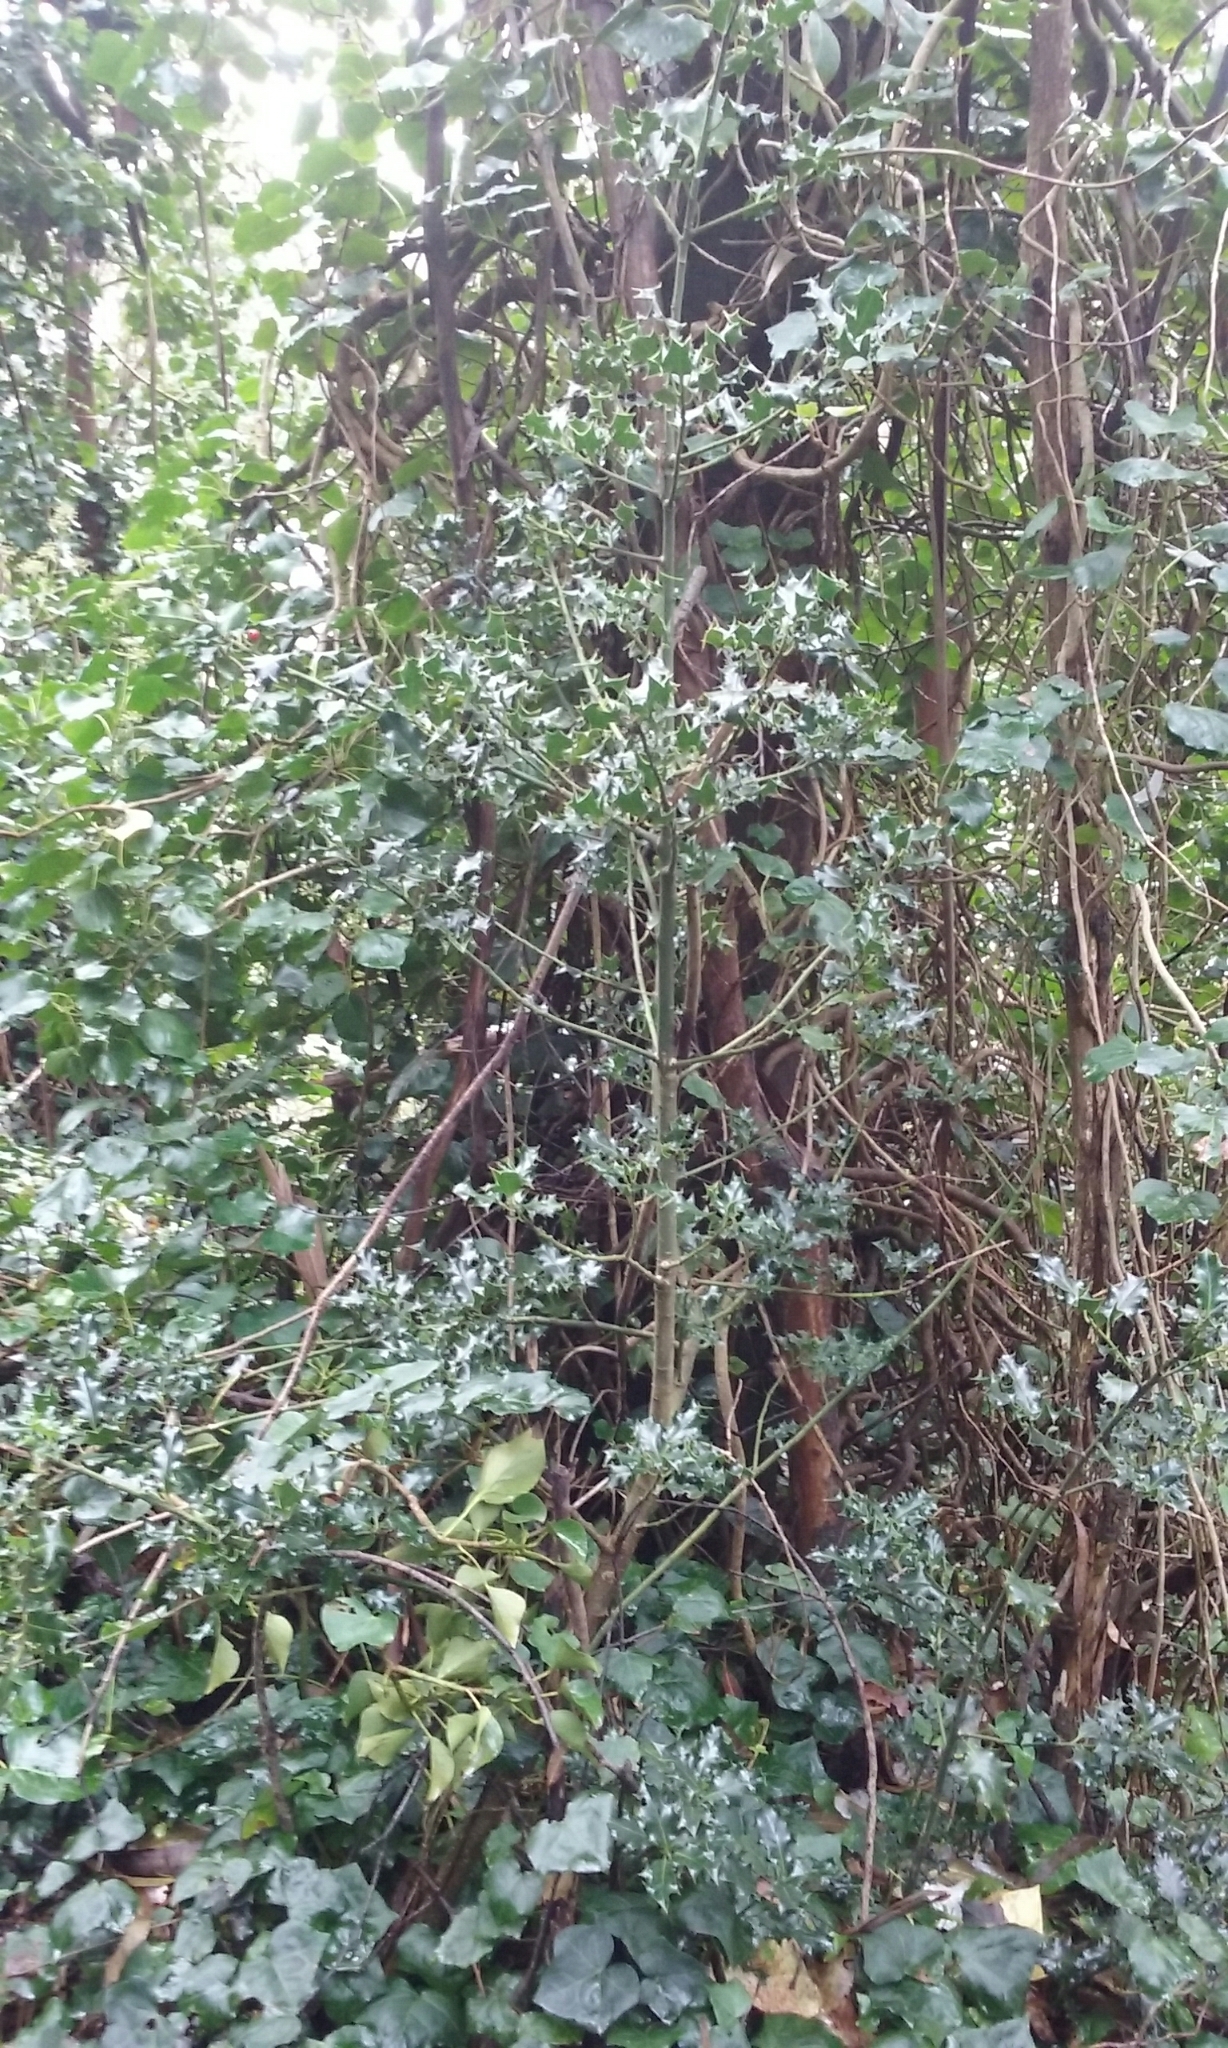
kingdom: Plantae
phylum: Tracheophyta
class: Magnoliopsida
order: Aquifoliales
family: Aquifoliaceae
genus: Ilex
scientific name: Ilex aquifolium
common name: English holly
